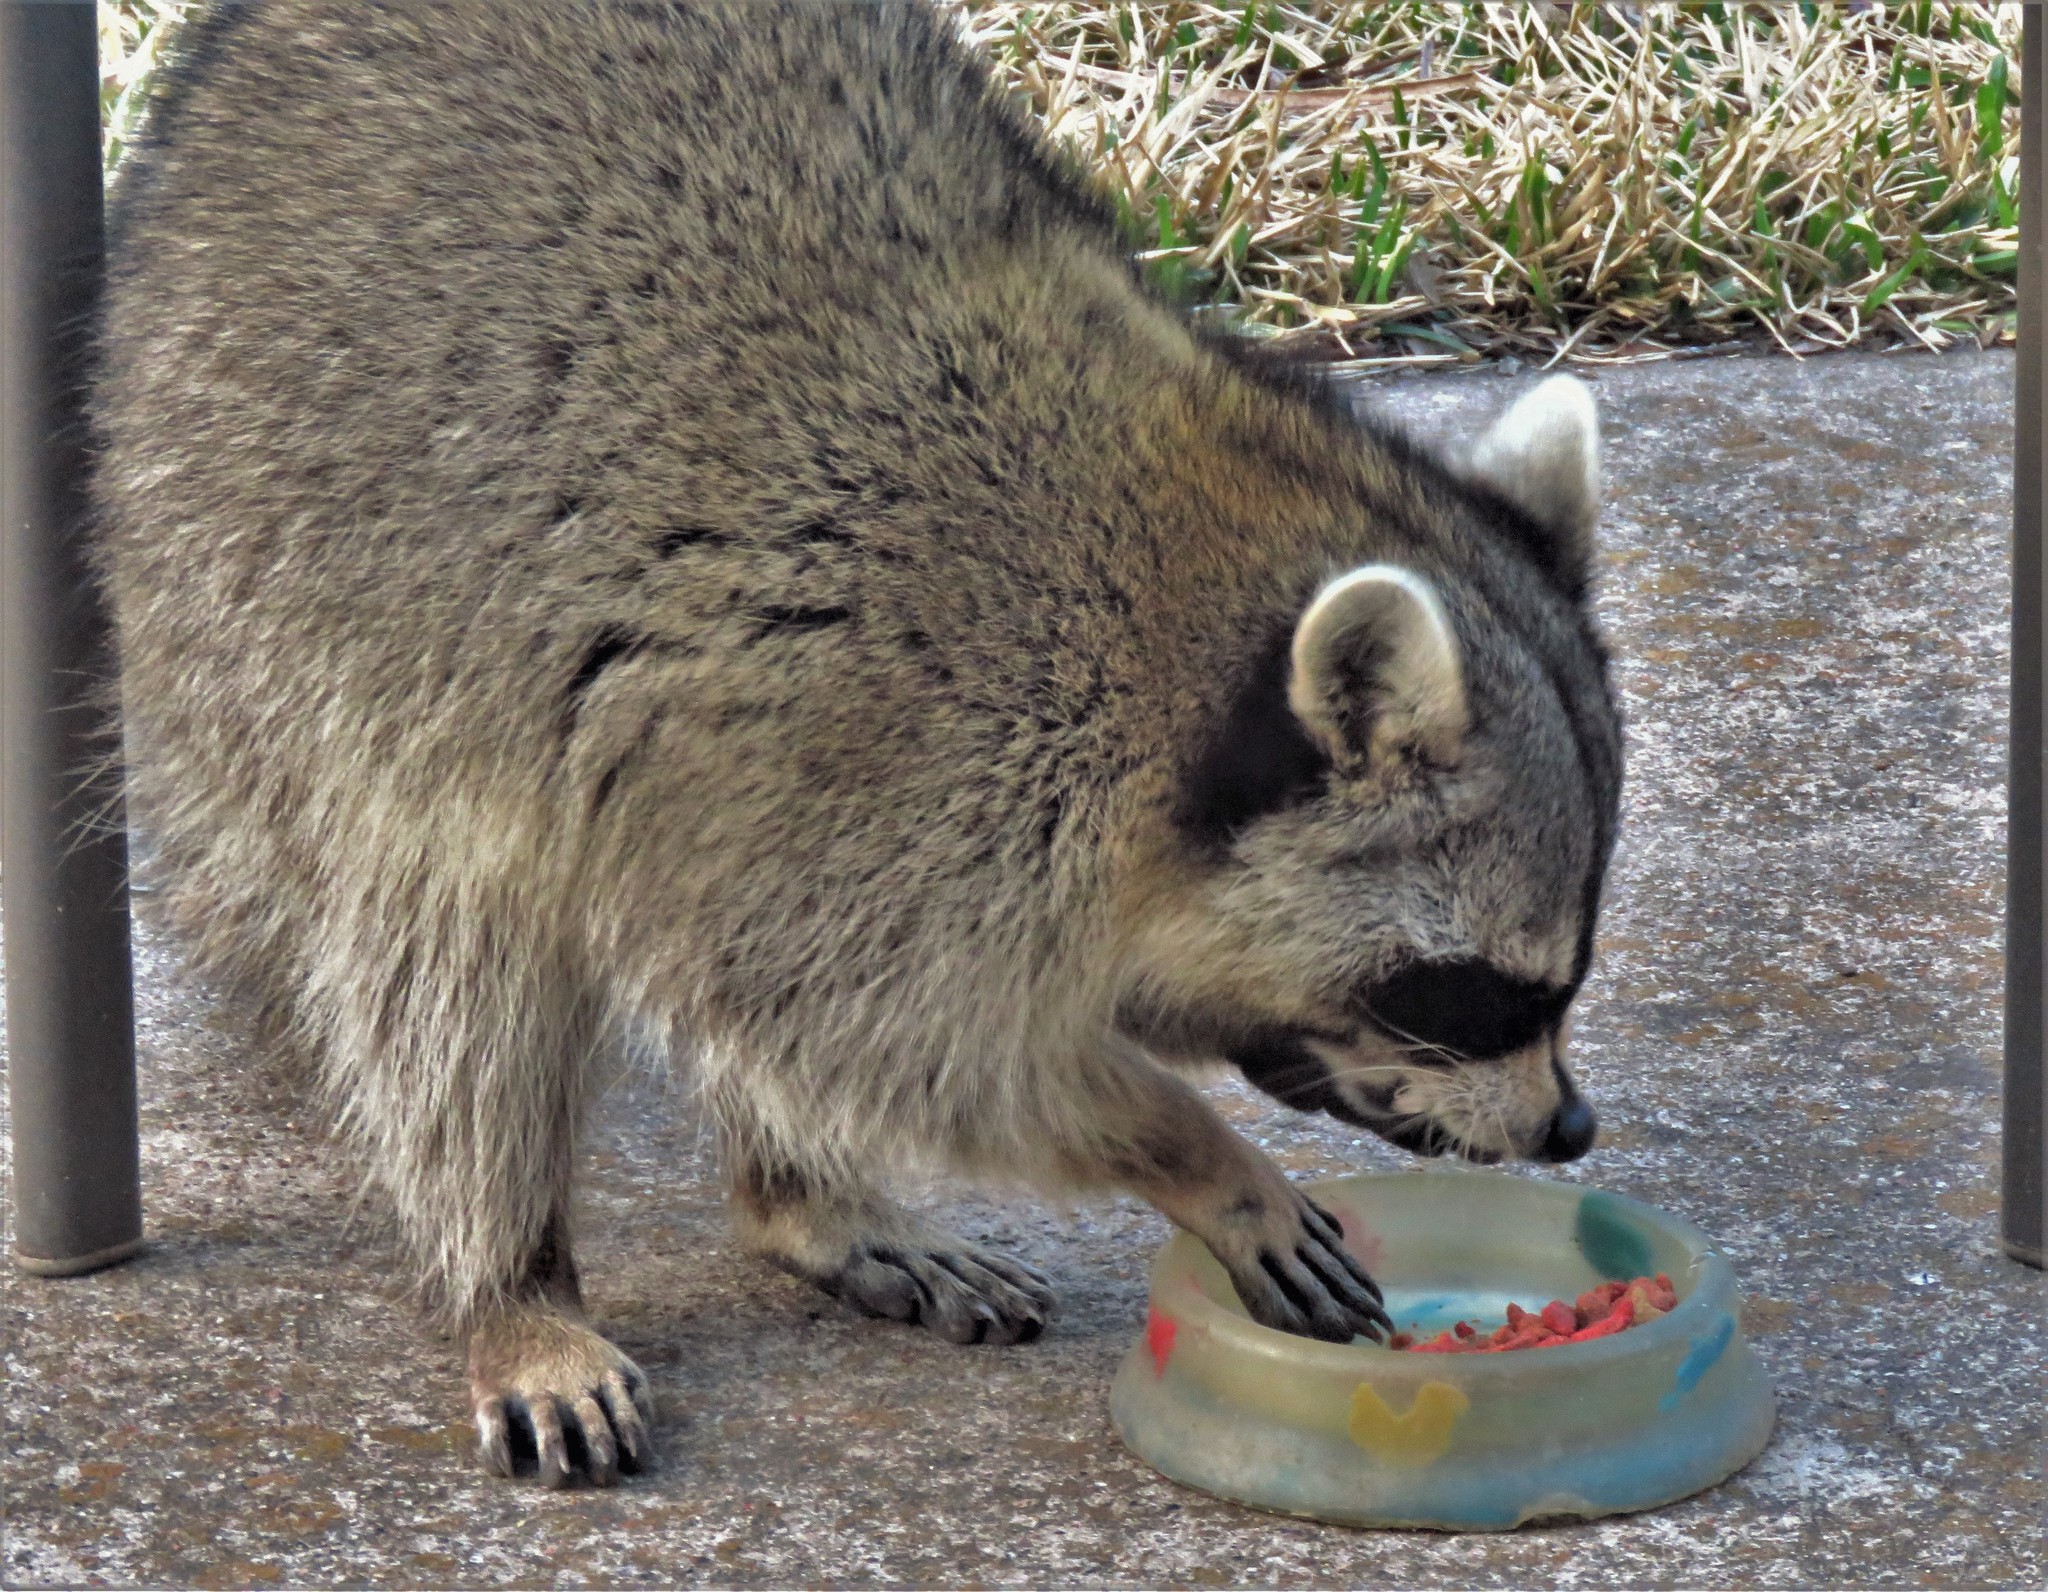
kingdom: Animalia
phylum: Chordata
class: Mammalia
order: Carnivora
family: Procyonidae
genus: Procyon
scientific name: Procyon lotor
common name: Raccoon
